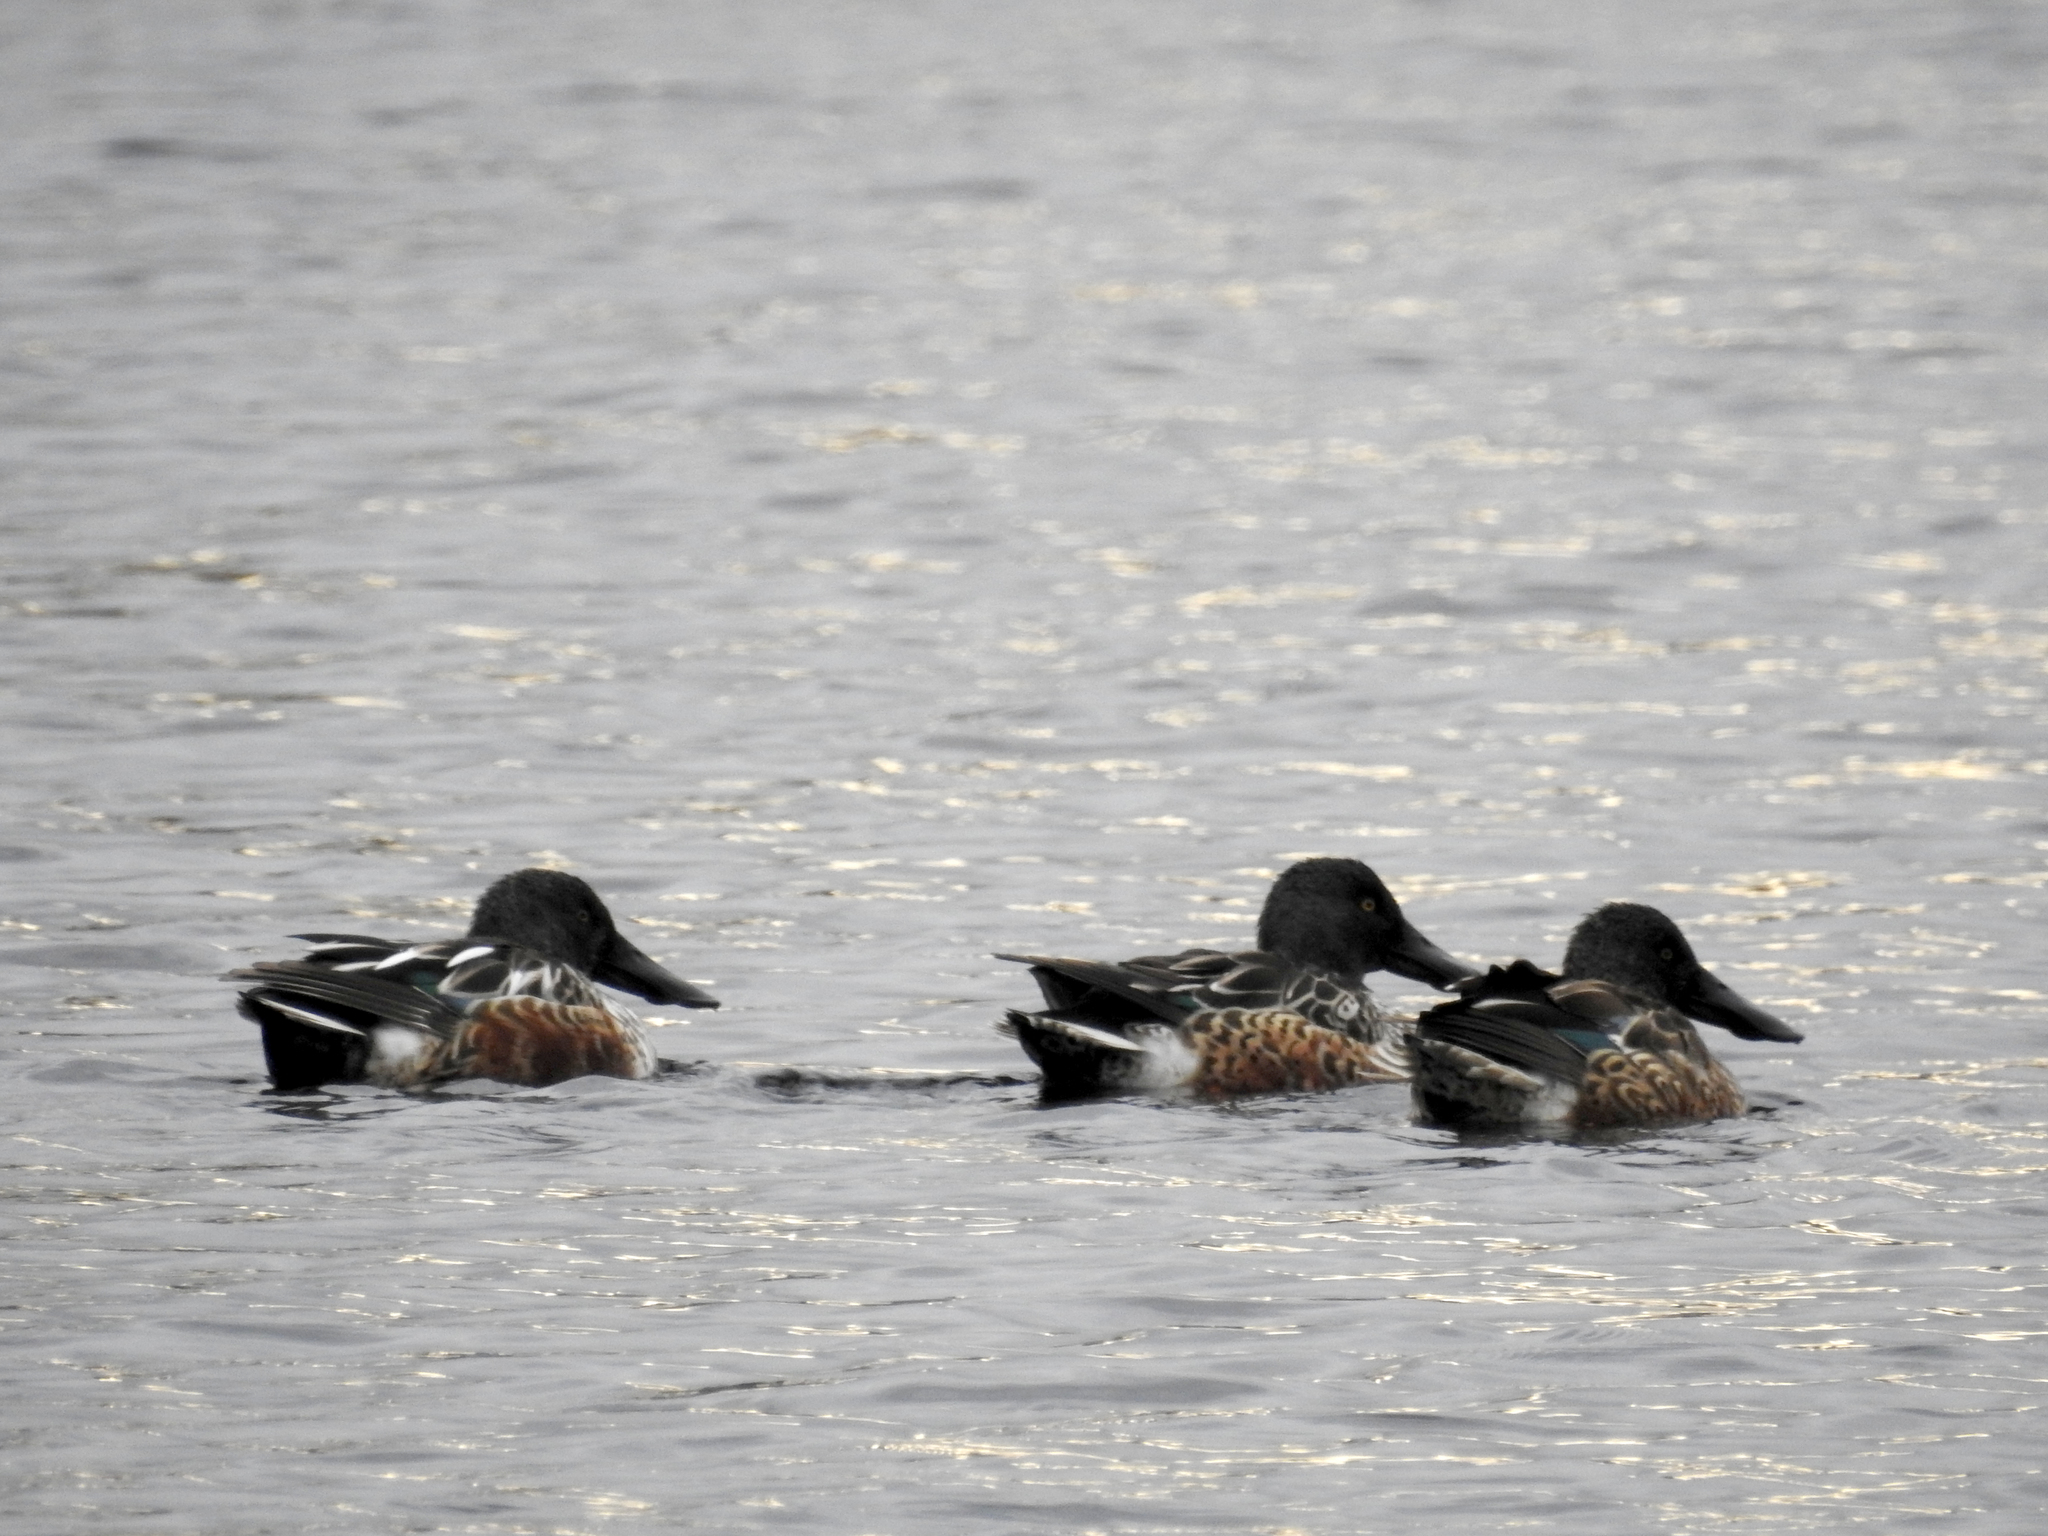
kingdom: Animalia
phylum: Chordata
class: Aves
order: Anseriformes
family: Anatidae
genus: Spatula
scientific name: Spatula clypeata
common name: Northern shoveler
